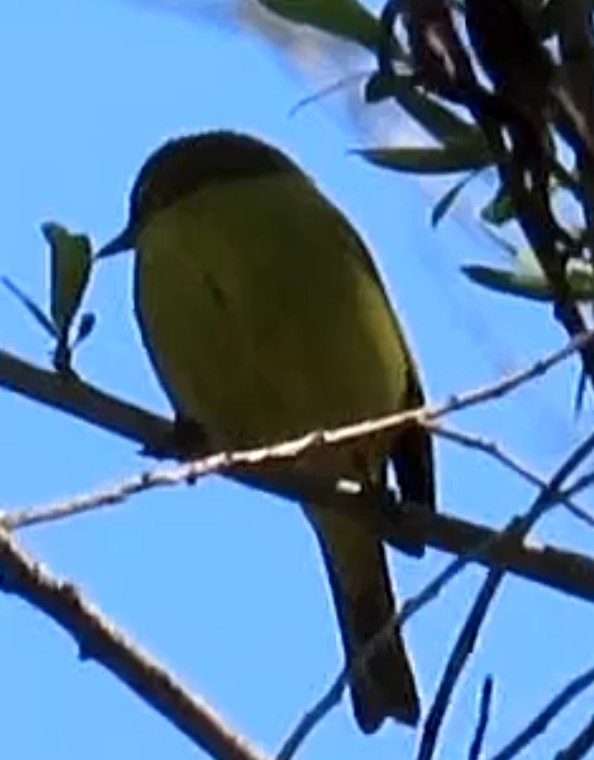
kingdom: Animalia
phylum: Chordata
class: Aves
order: Passeriformes
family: Parulidae
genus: Leiothlypis
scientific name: Leiothlypis celata
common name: Orange-crowned warbler
